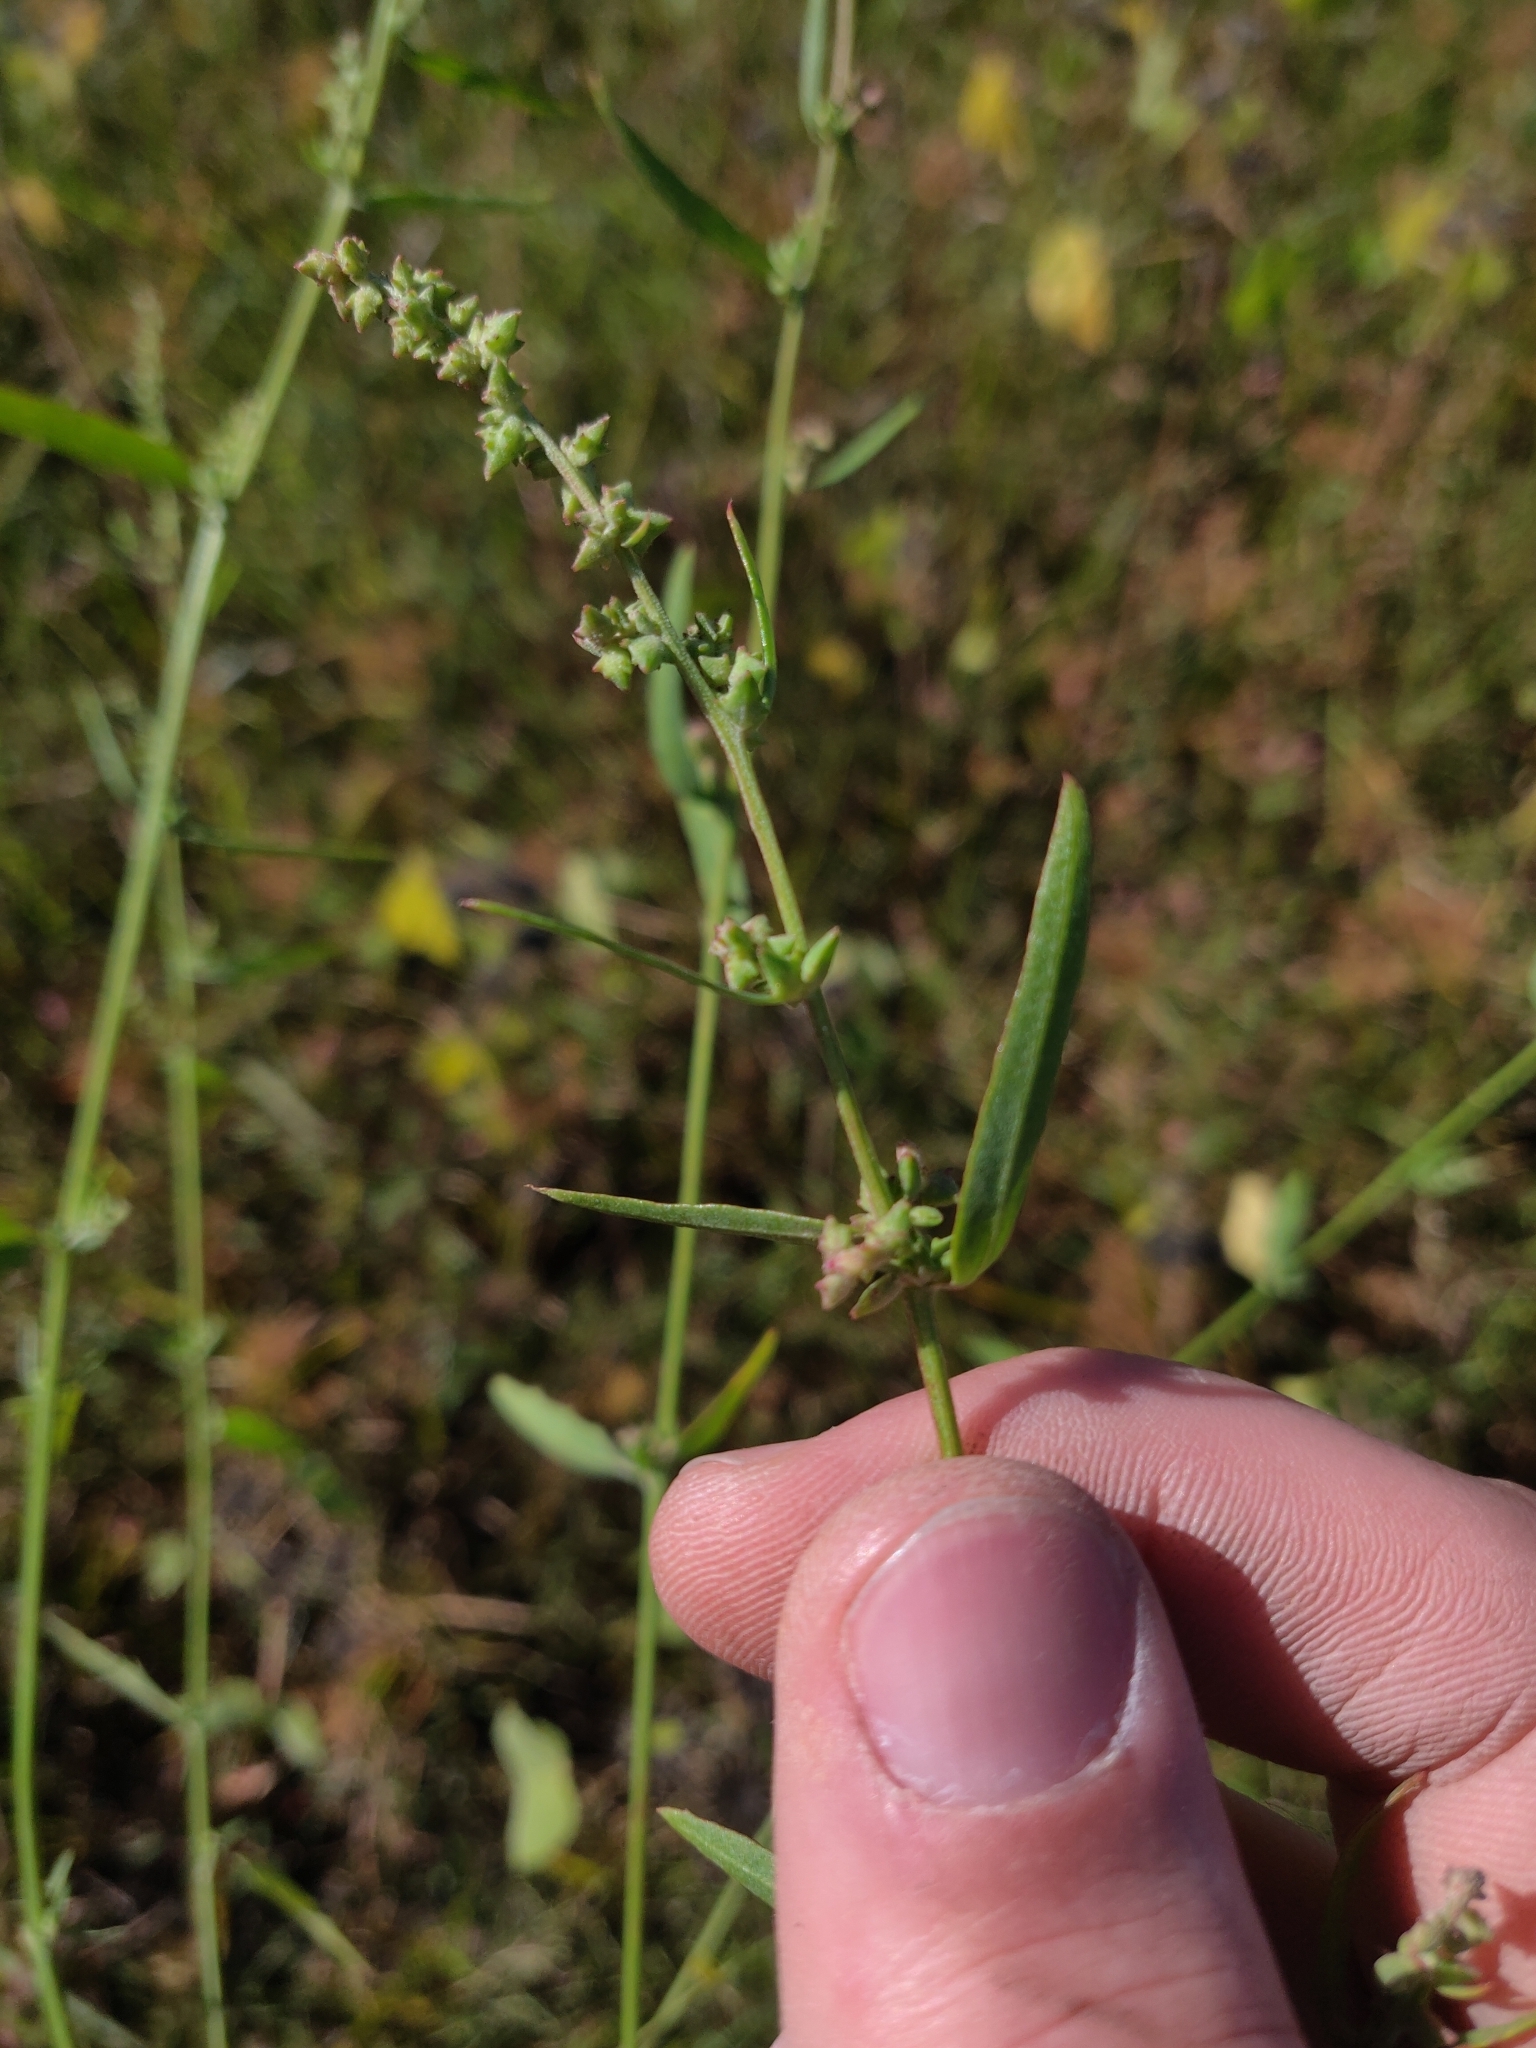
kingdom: Plantae
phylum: Tracheophyta
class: Magnoliopsida
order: Caryophyllales
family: Amaranthaceae
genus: Atriplex
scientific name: Atriplex patula
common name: Common orache
